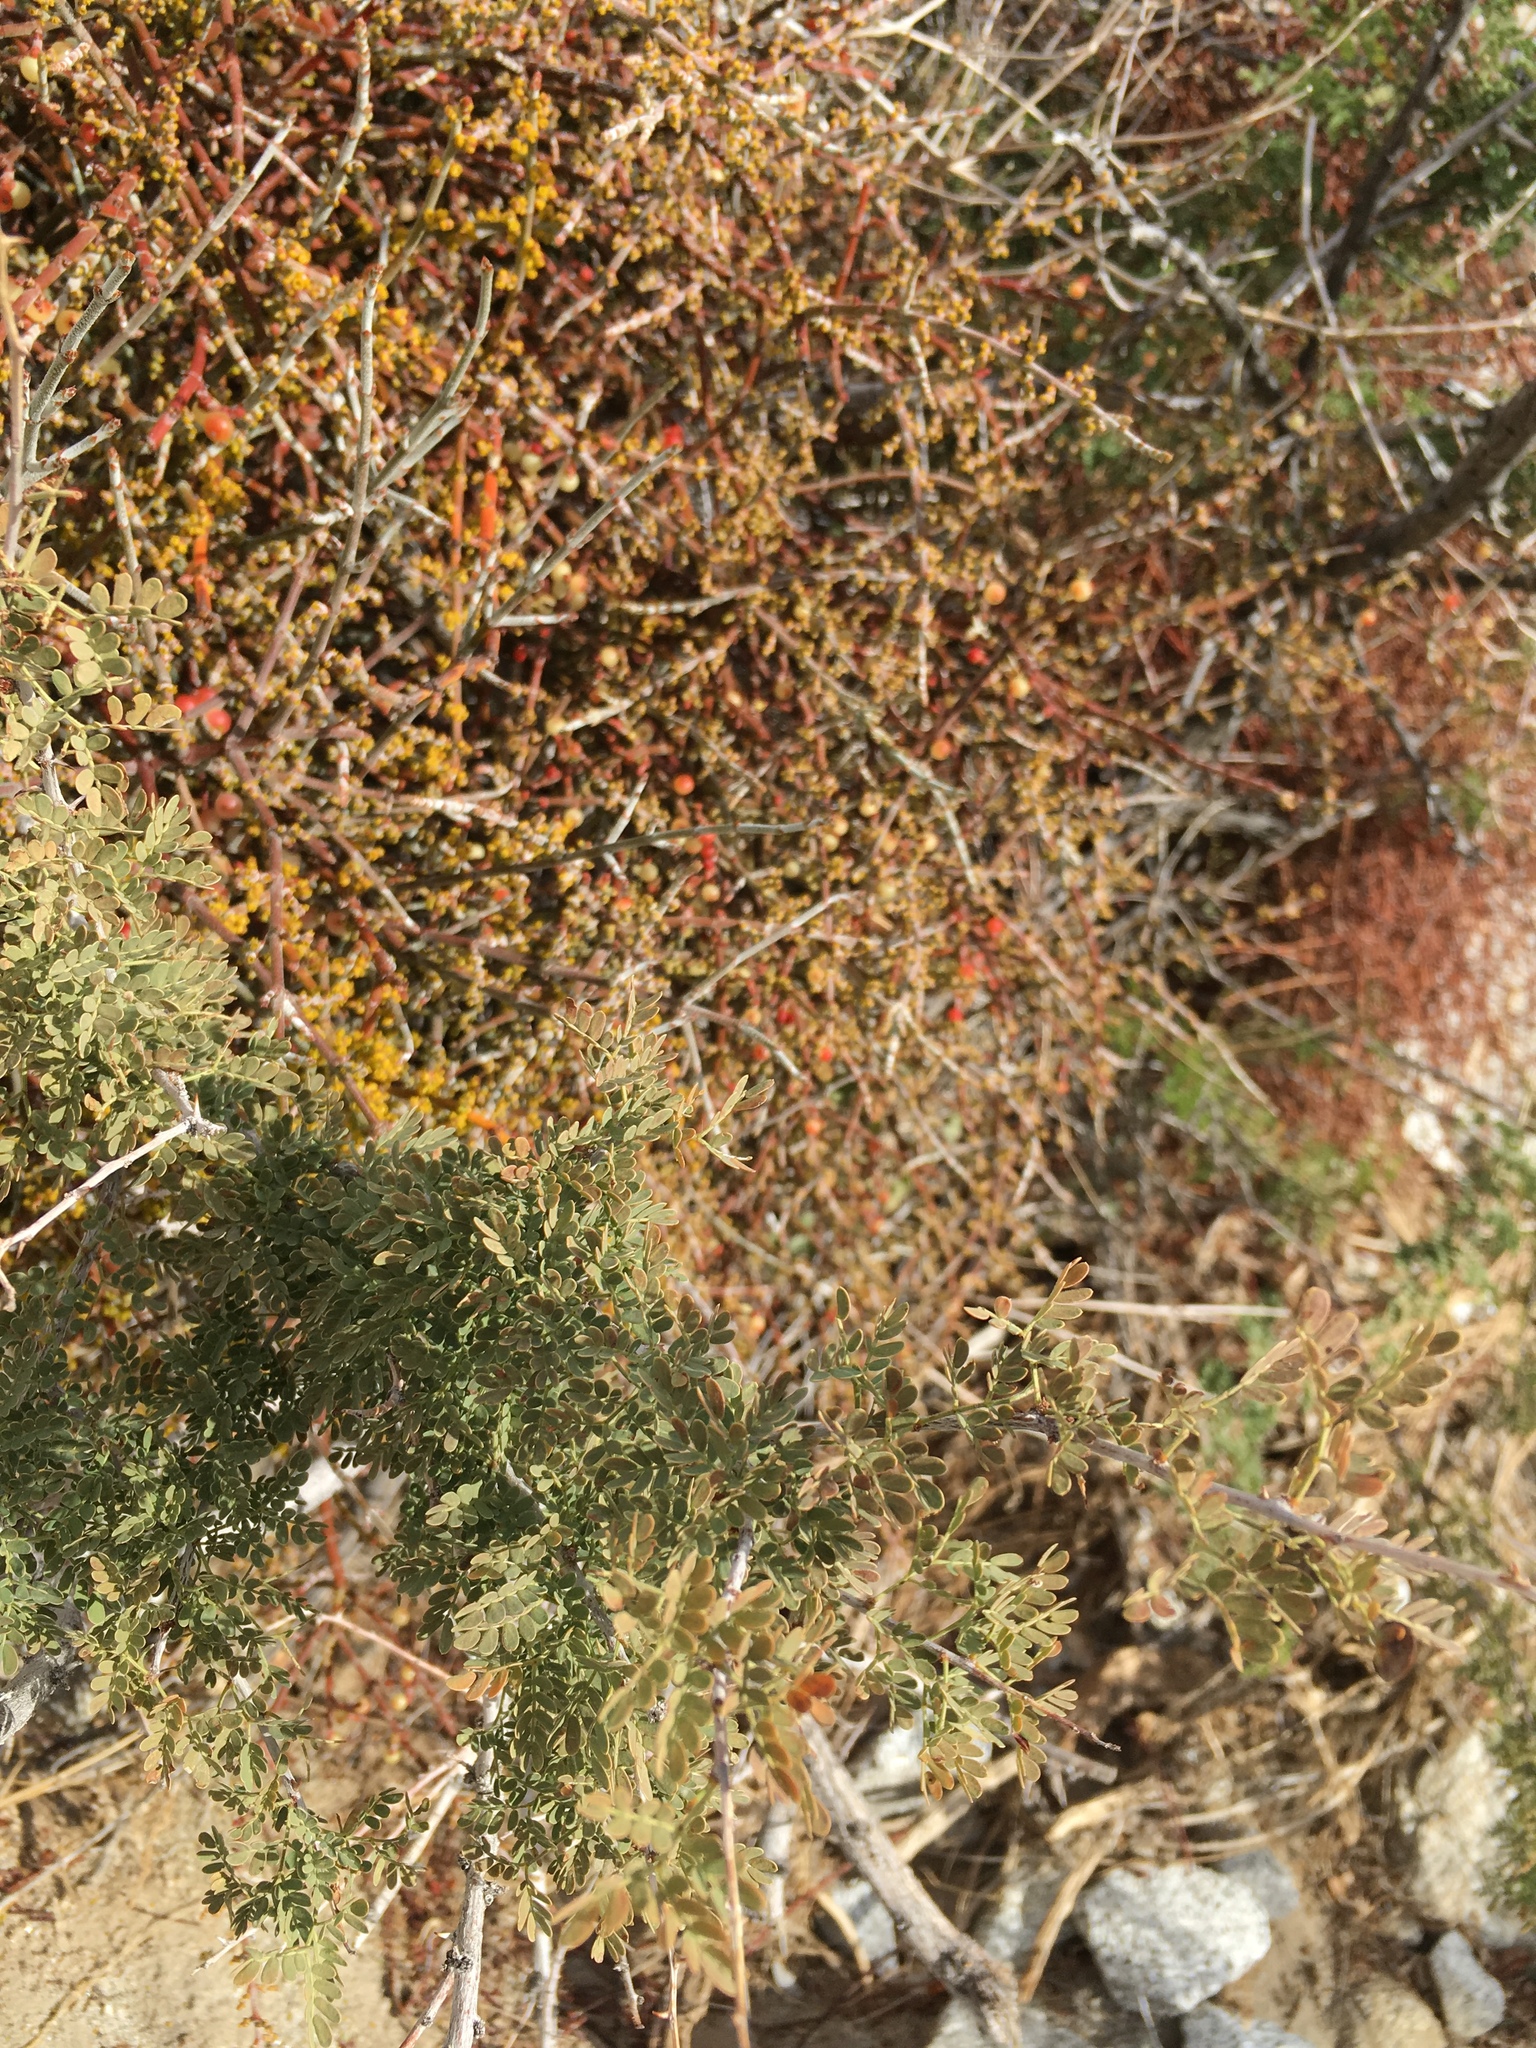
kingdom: Plantae
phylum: Tracheophyta
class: Magnoliopsida
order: Santalales
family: Viscaceae
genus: Phoradendron
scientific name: Phoradendron californicum
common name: Acacia mistletoe
